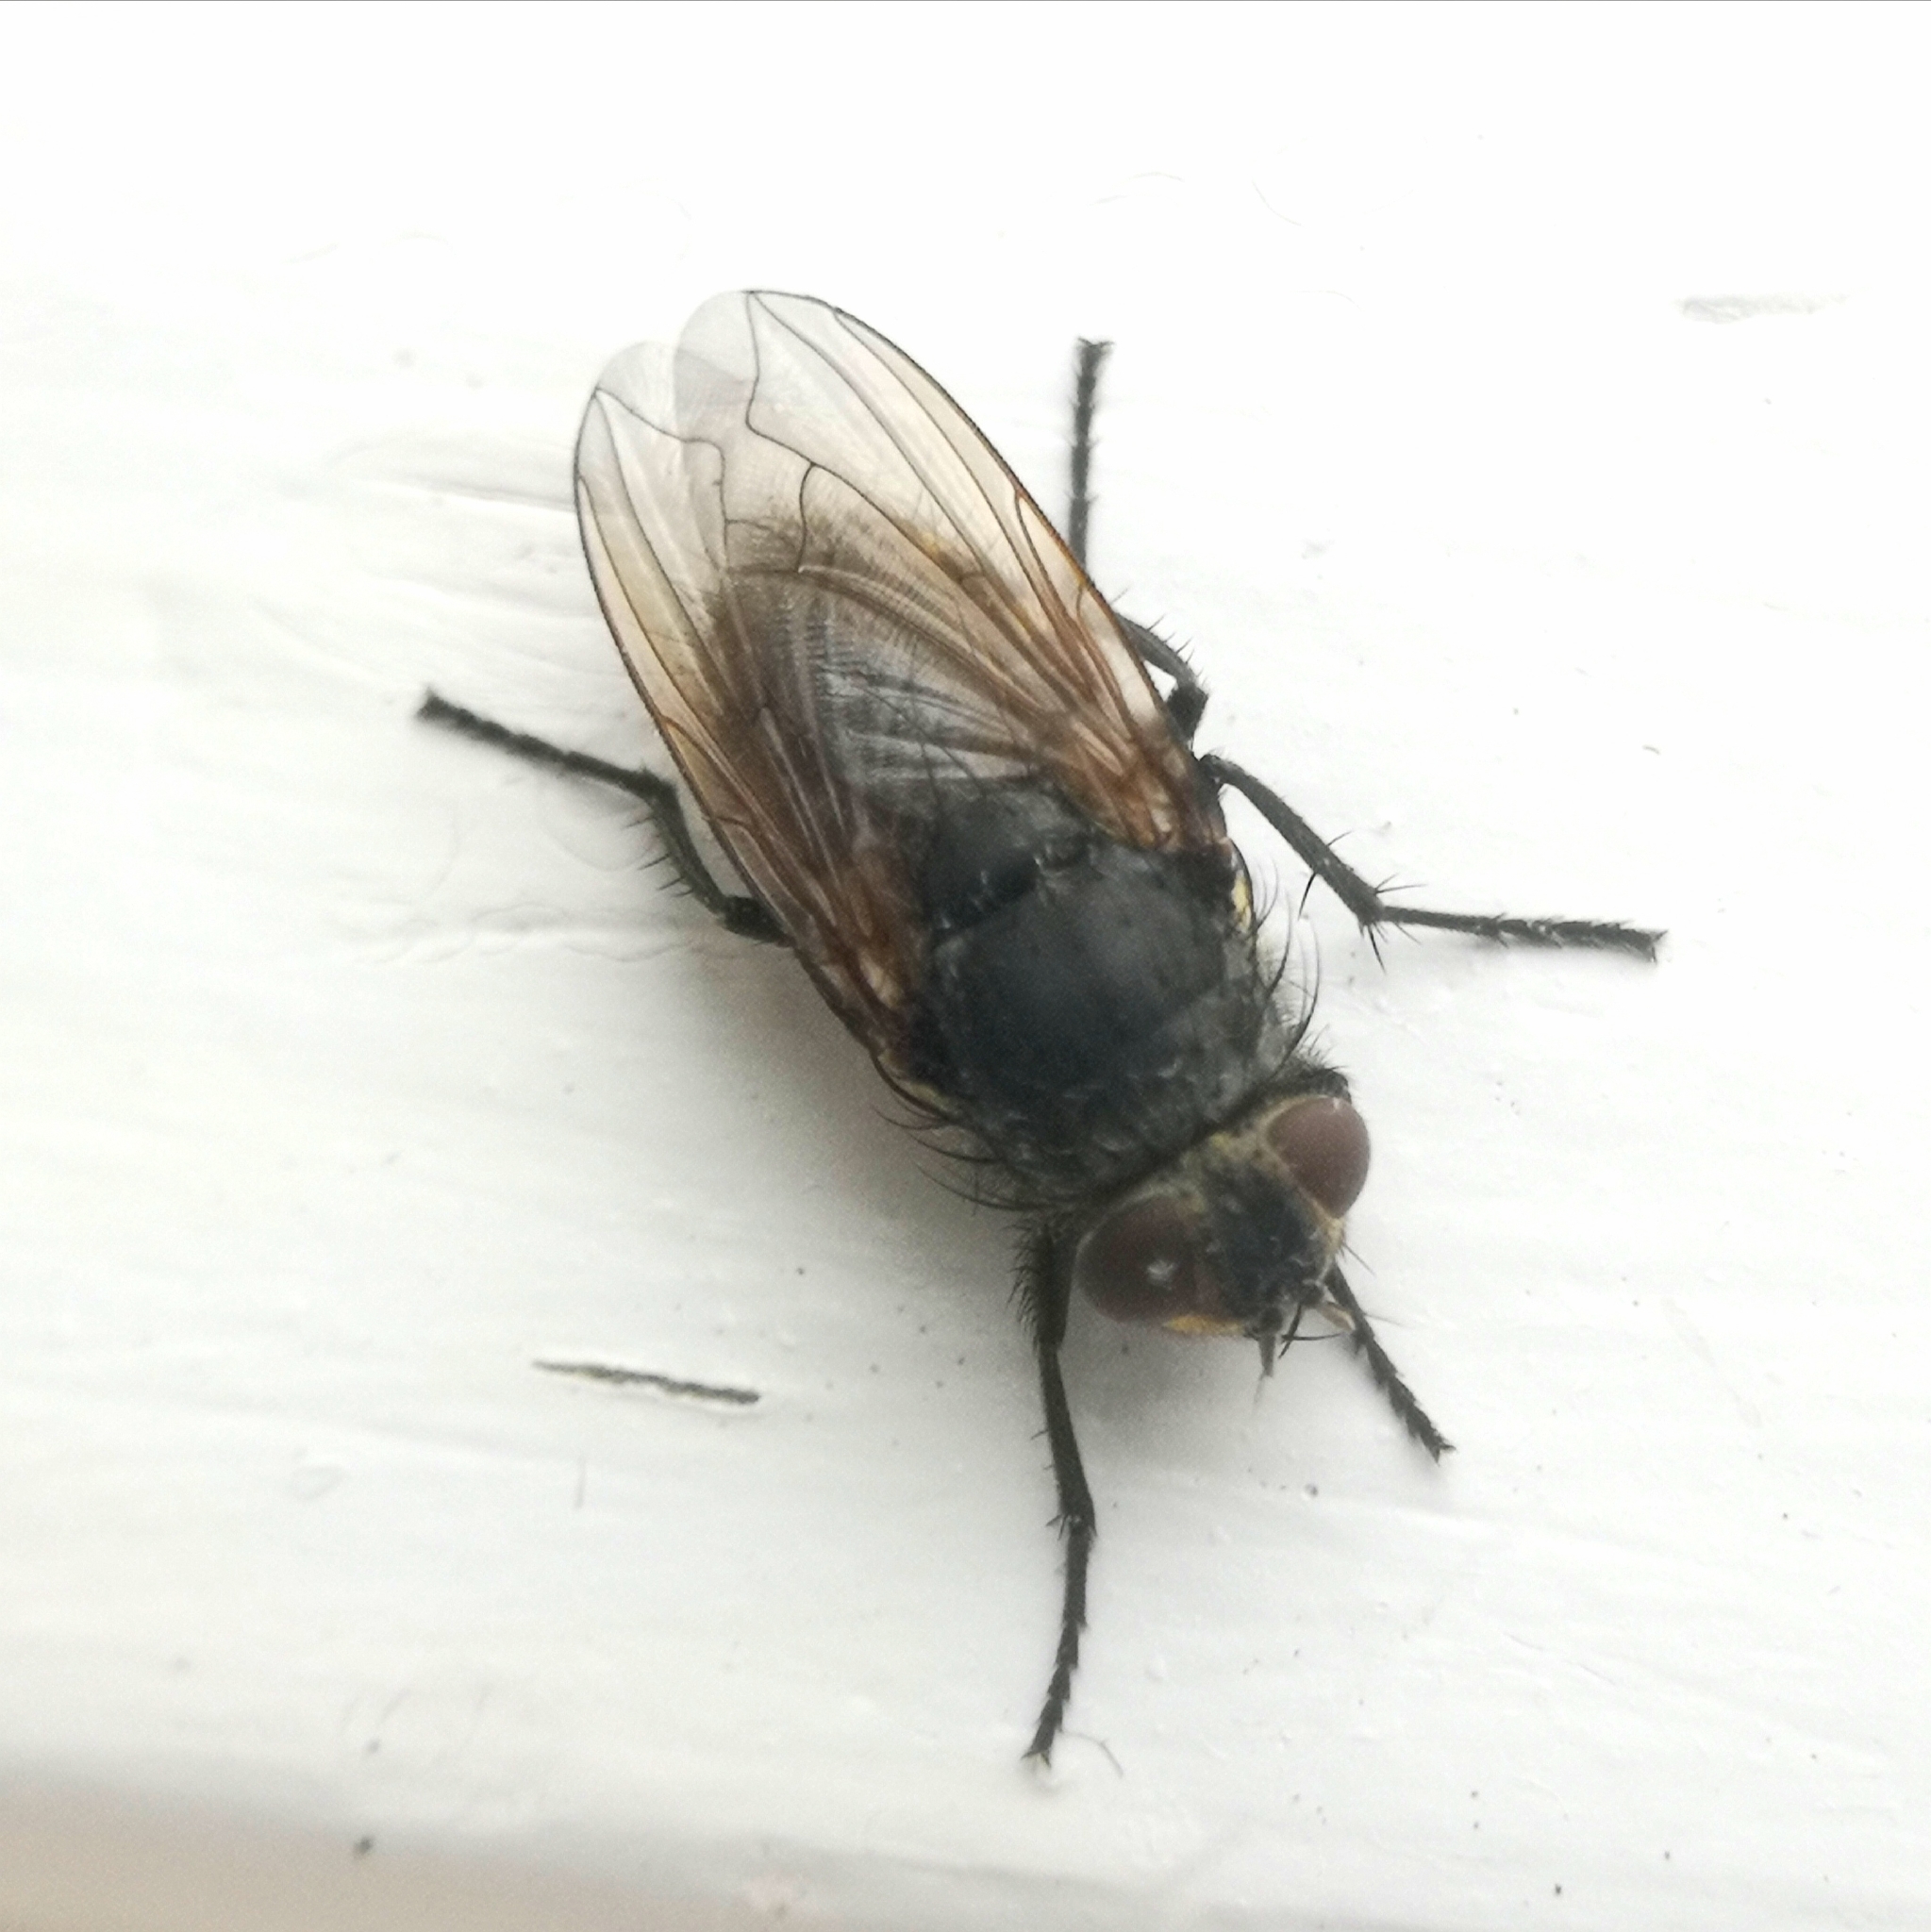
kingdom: Animalia
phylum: Arthropoda
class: Insecta
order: Diptera
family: Polleniidae
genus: Pollenia
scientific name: Pollenia
